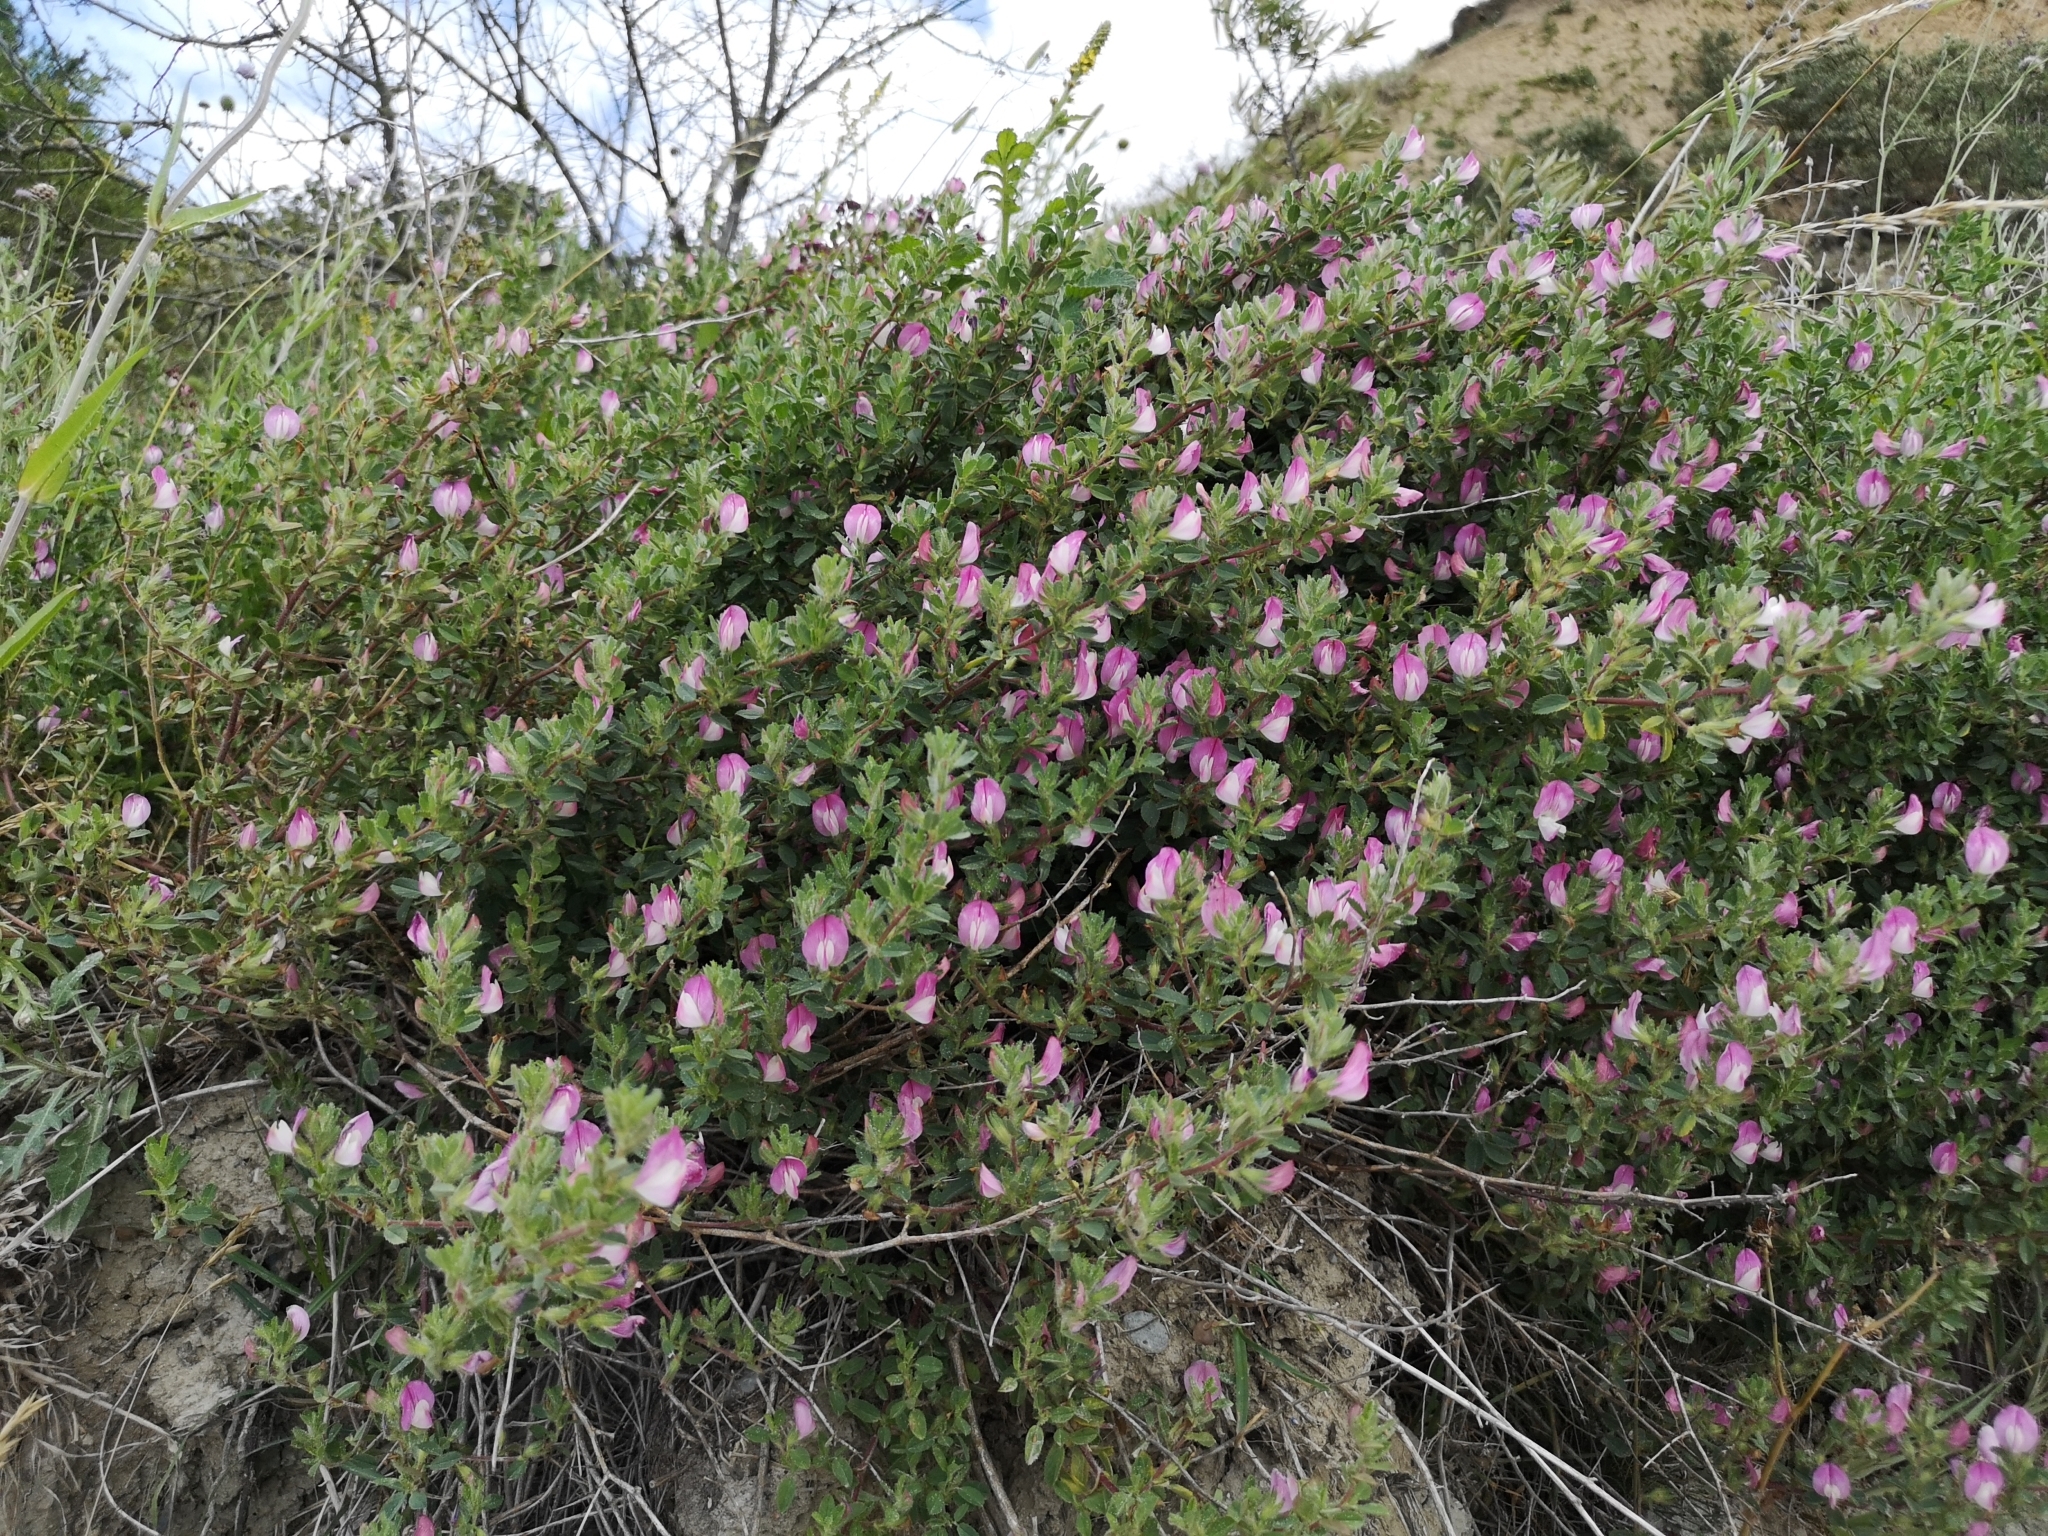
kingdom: Plantae
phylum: Tracheophyta
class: Magnoliopsida
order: Fabales
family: Fabaceae
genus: Ononis
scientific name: Ononis spinosa
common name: Spiny restharrow
